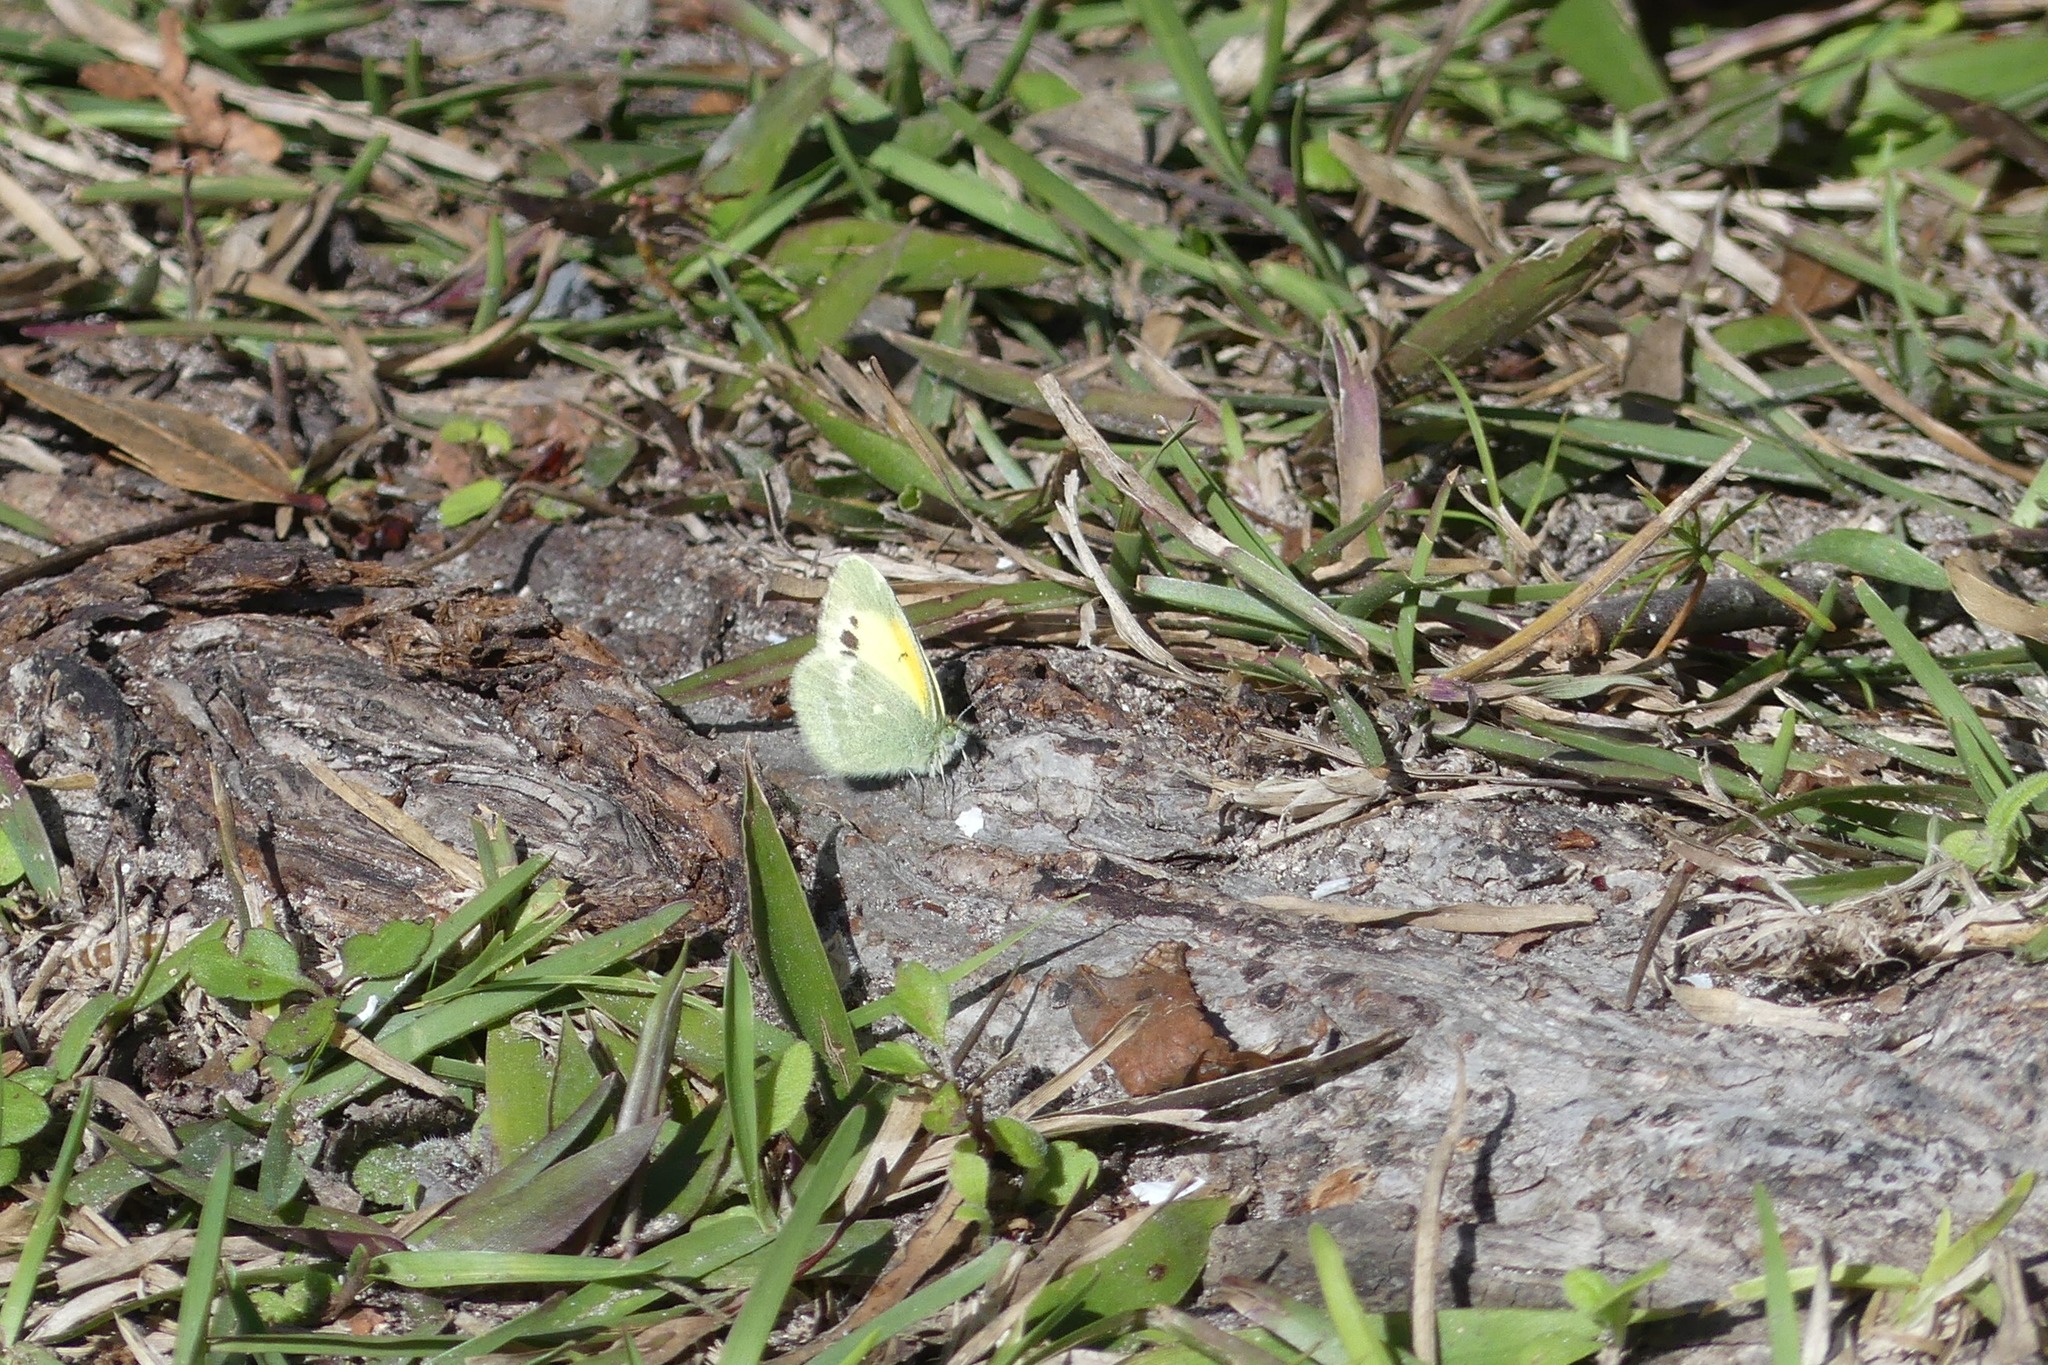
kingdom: Animalia
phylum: Arthropoda
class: Insecta
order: Lepidoptera
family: Pieridae
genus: Nathalis
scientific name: Nathalis iole
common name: Dainty sulphur
